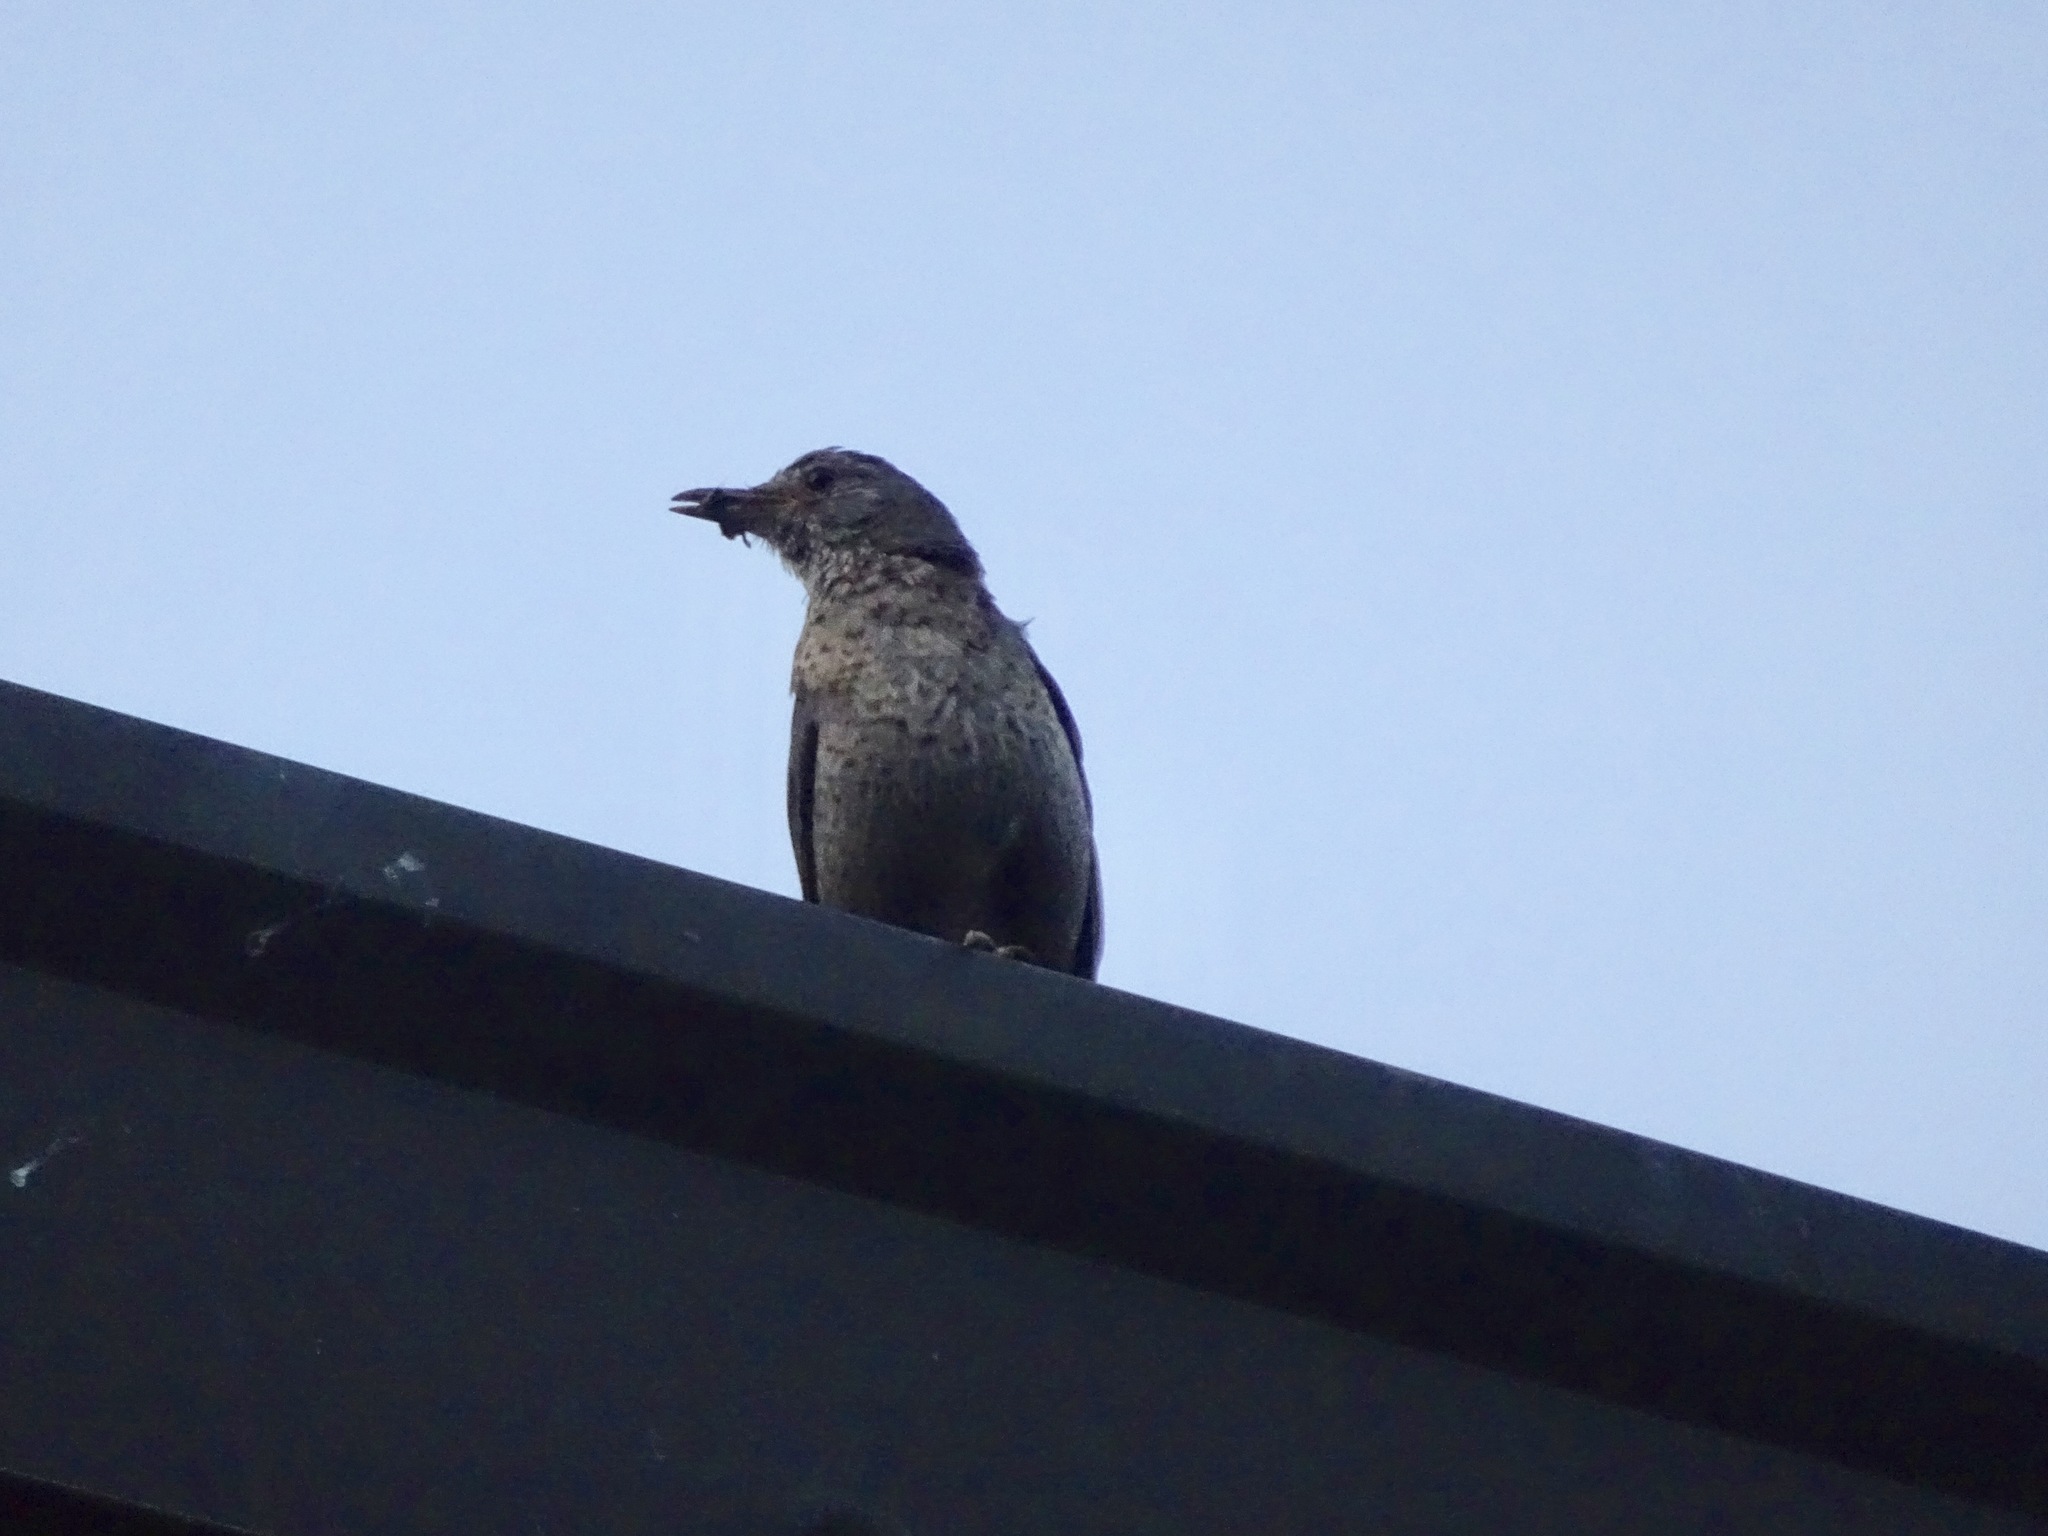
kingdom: Animalia
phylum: Chordata
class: Aves
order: Passeriformes
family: Turdidae
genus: Turdus
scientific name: Turdus merula
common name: Common blackbird
